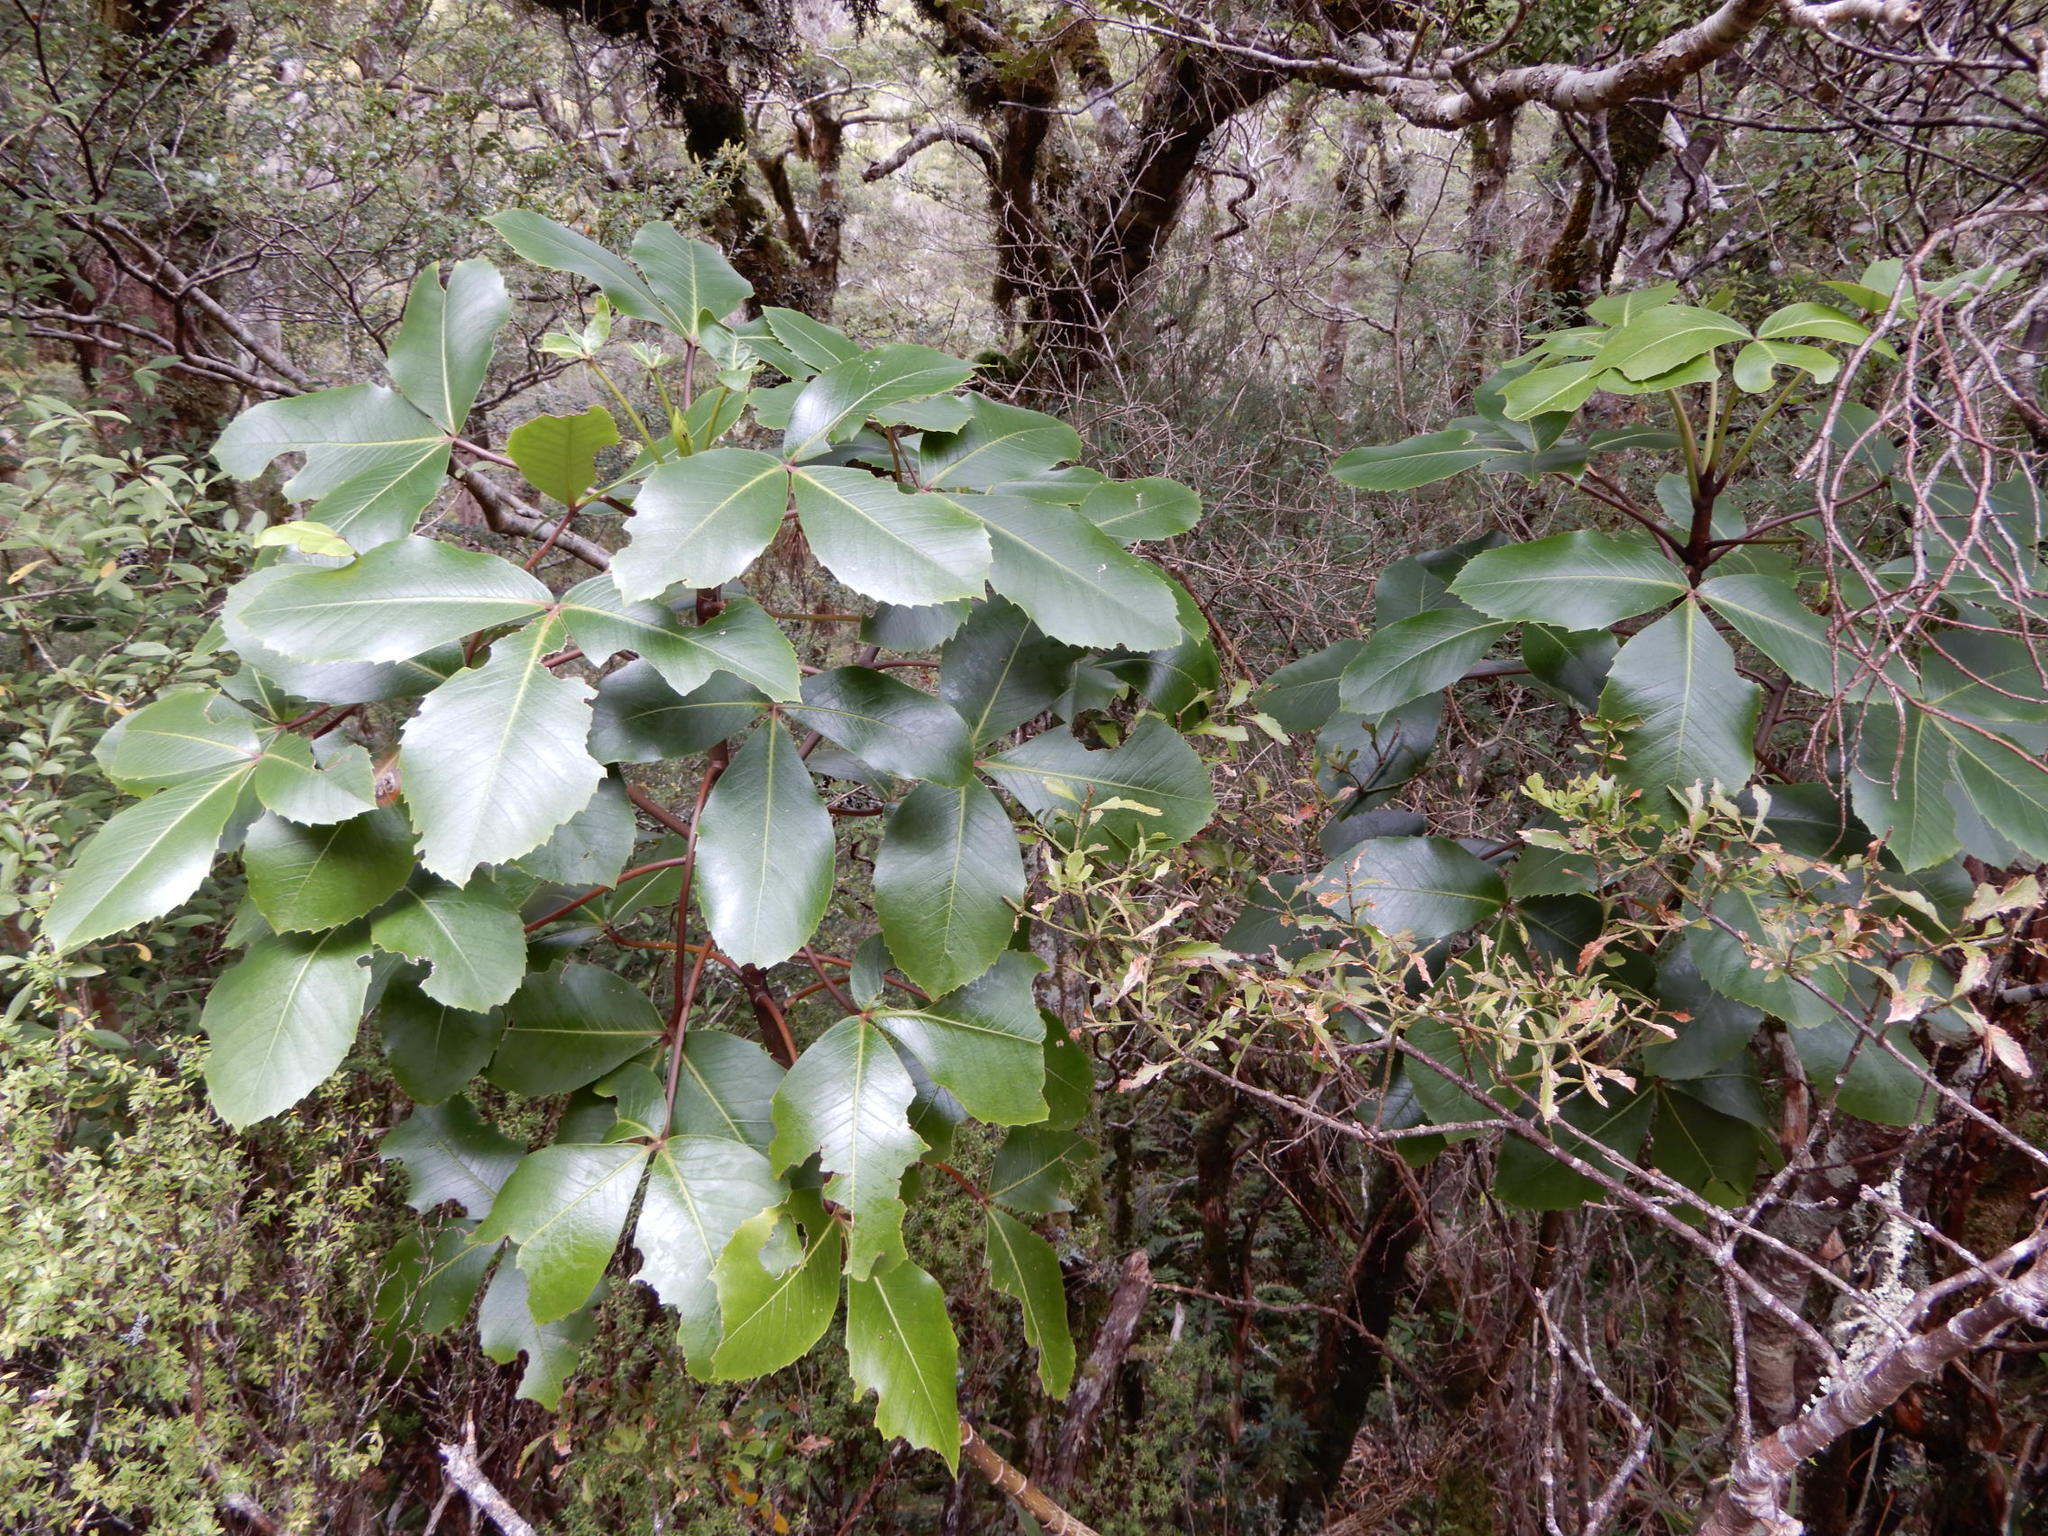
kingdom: Plantae
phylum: Tracheophyta
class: Magnoliopsida
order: Apiales
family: Araliaceae
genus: Neopanax
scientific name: Neopanax colensoi
